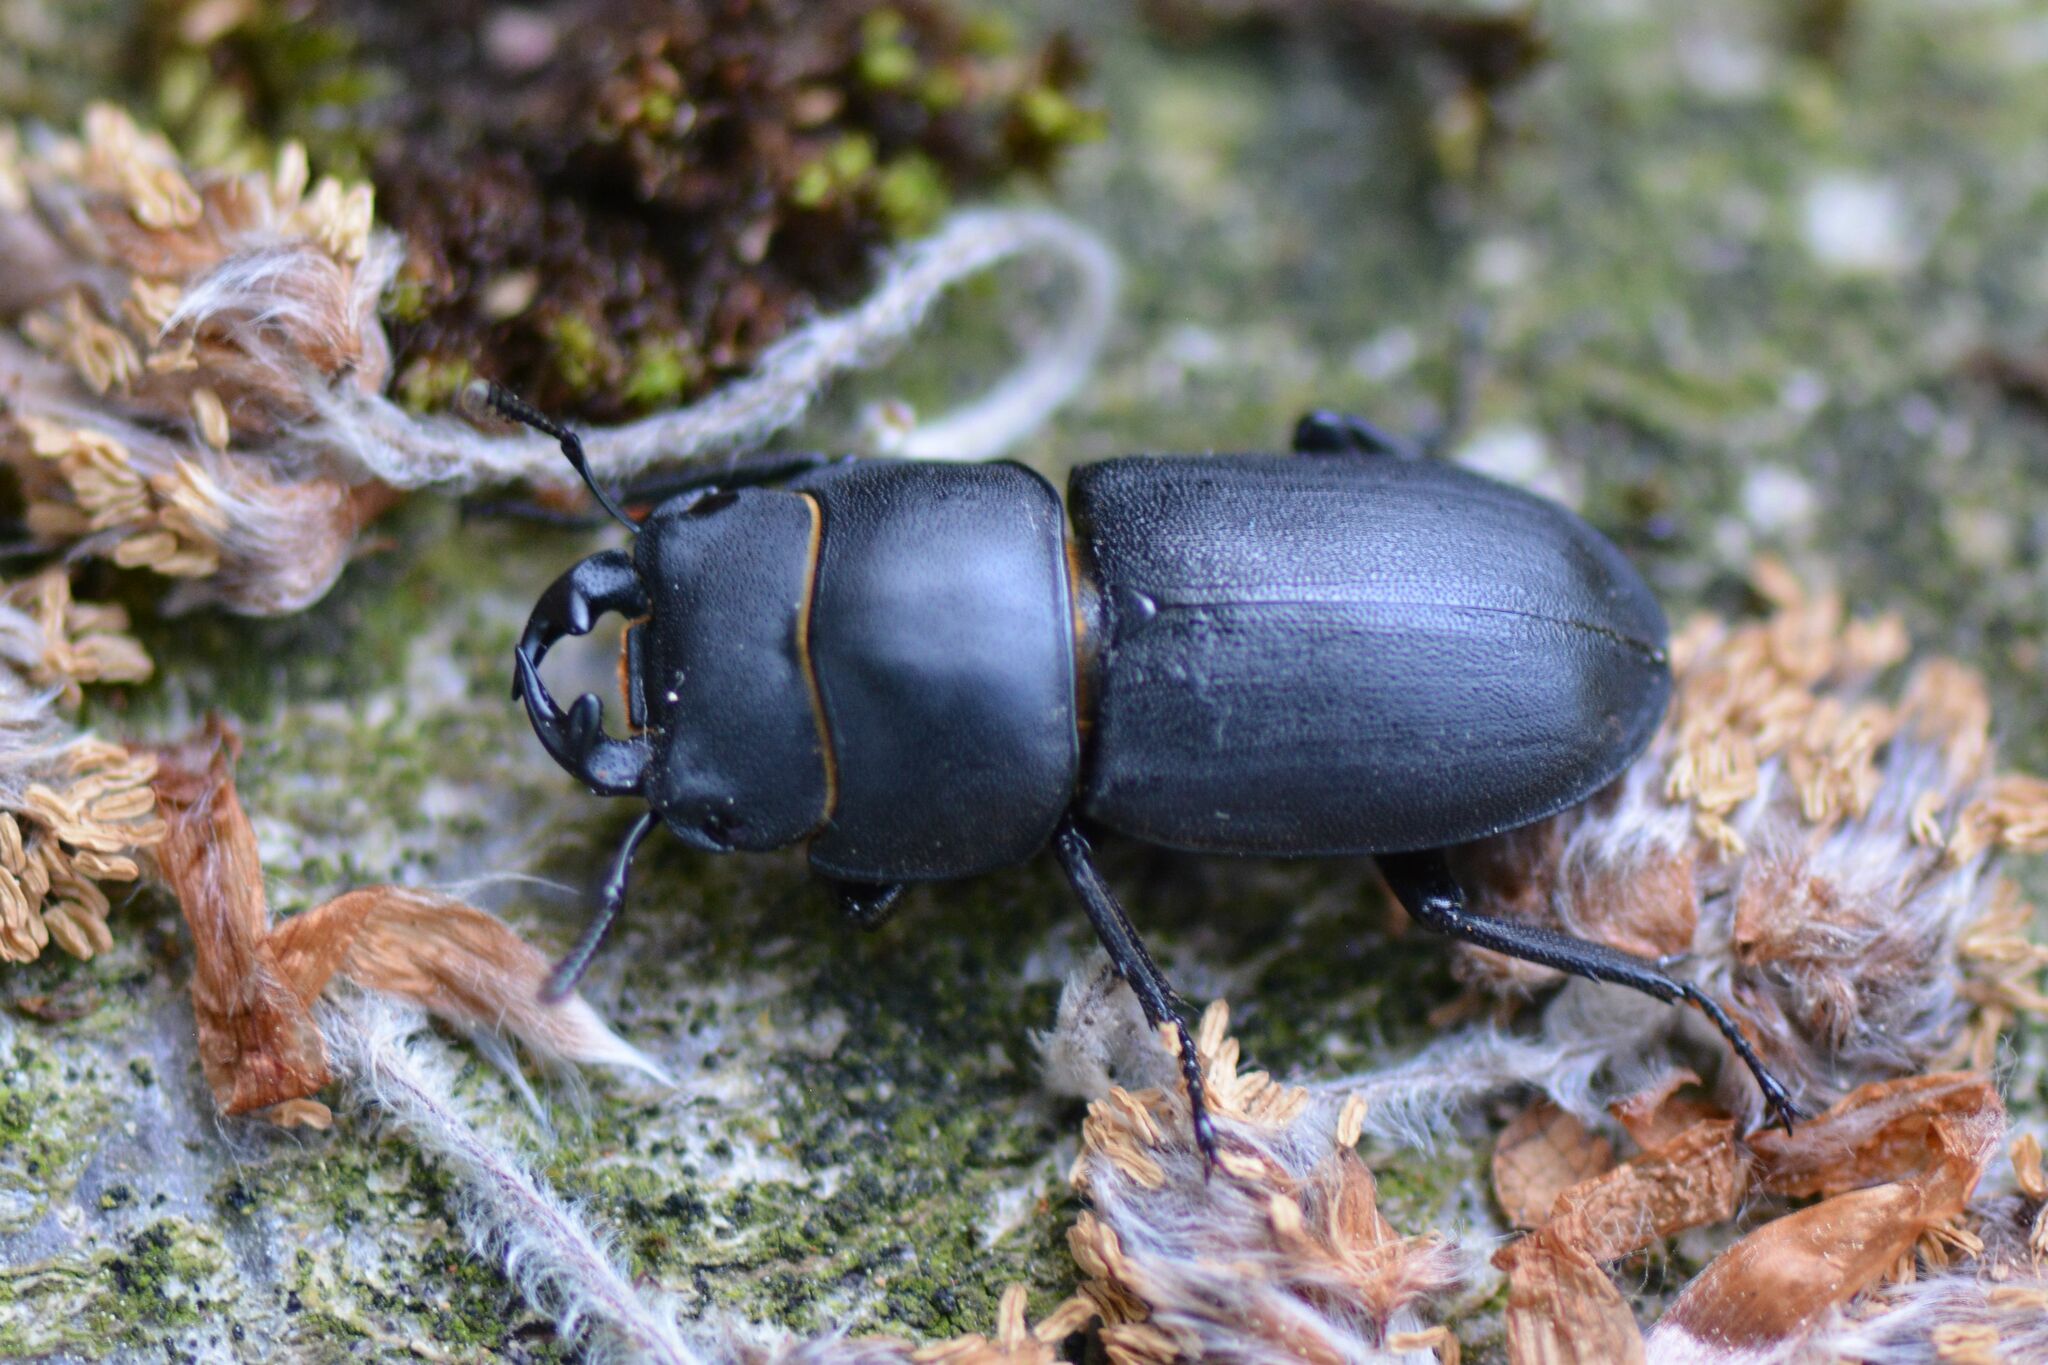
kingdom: Animalia
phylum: Arthropoda
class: Insecta
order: Coleoptera
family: Lucanidae
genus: Dorcus
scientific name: Dorcus parallelipipedus
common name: Lesser stag beetle
